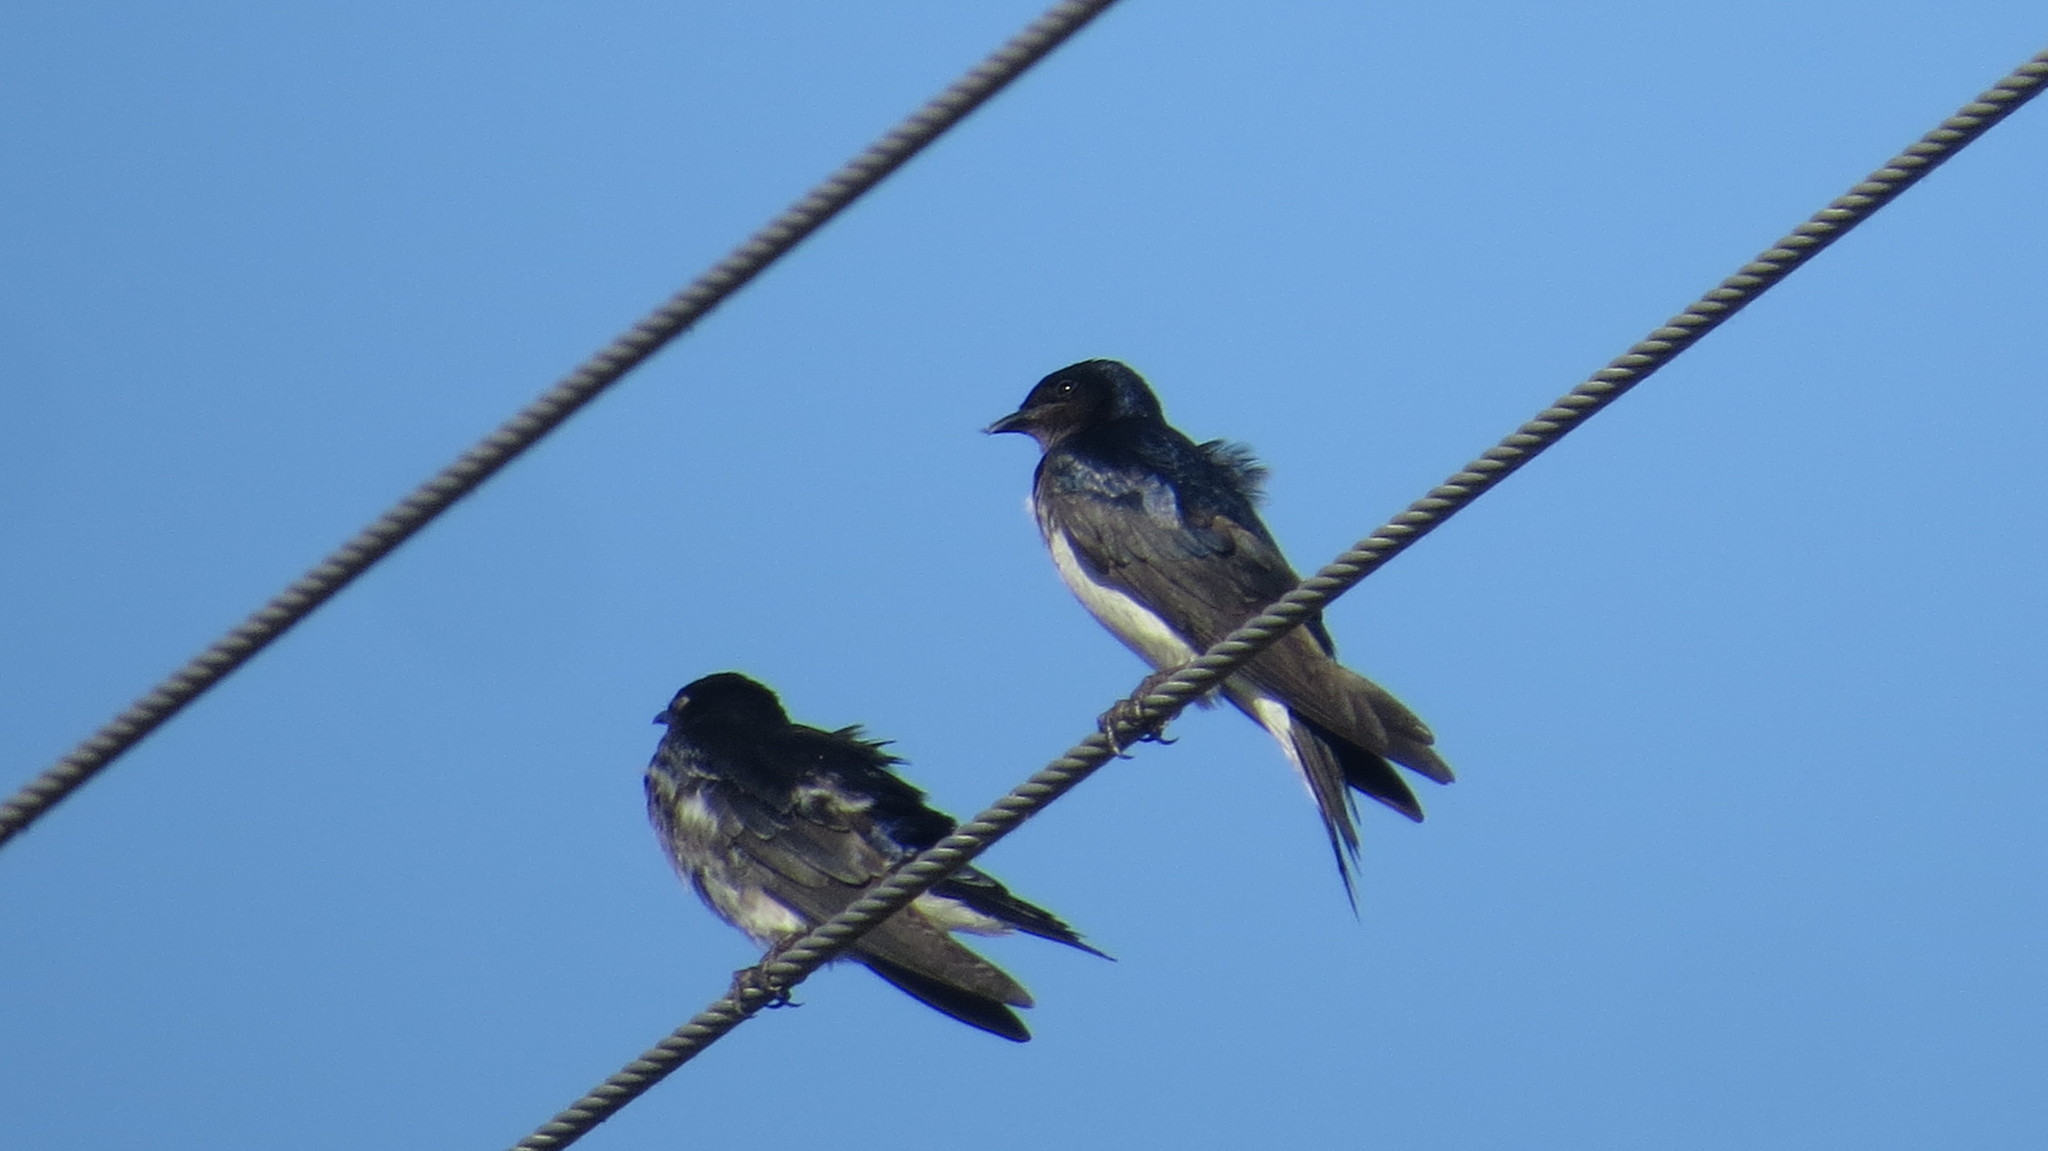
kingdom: Animalia
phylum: Chordata
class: Aves
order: Passeriformes
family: Hirundinidae
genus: Progne
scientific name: Progne chalybea
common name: Grey-breasted martin
